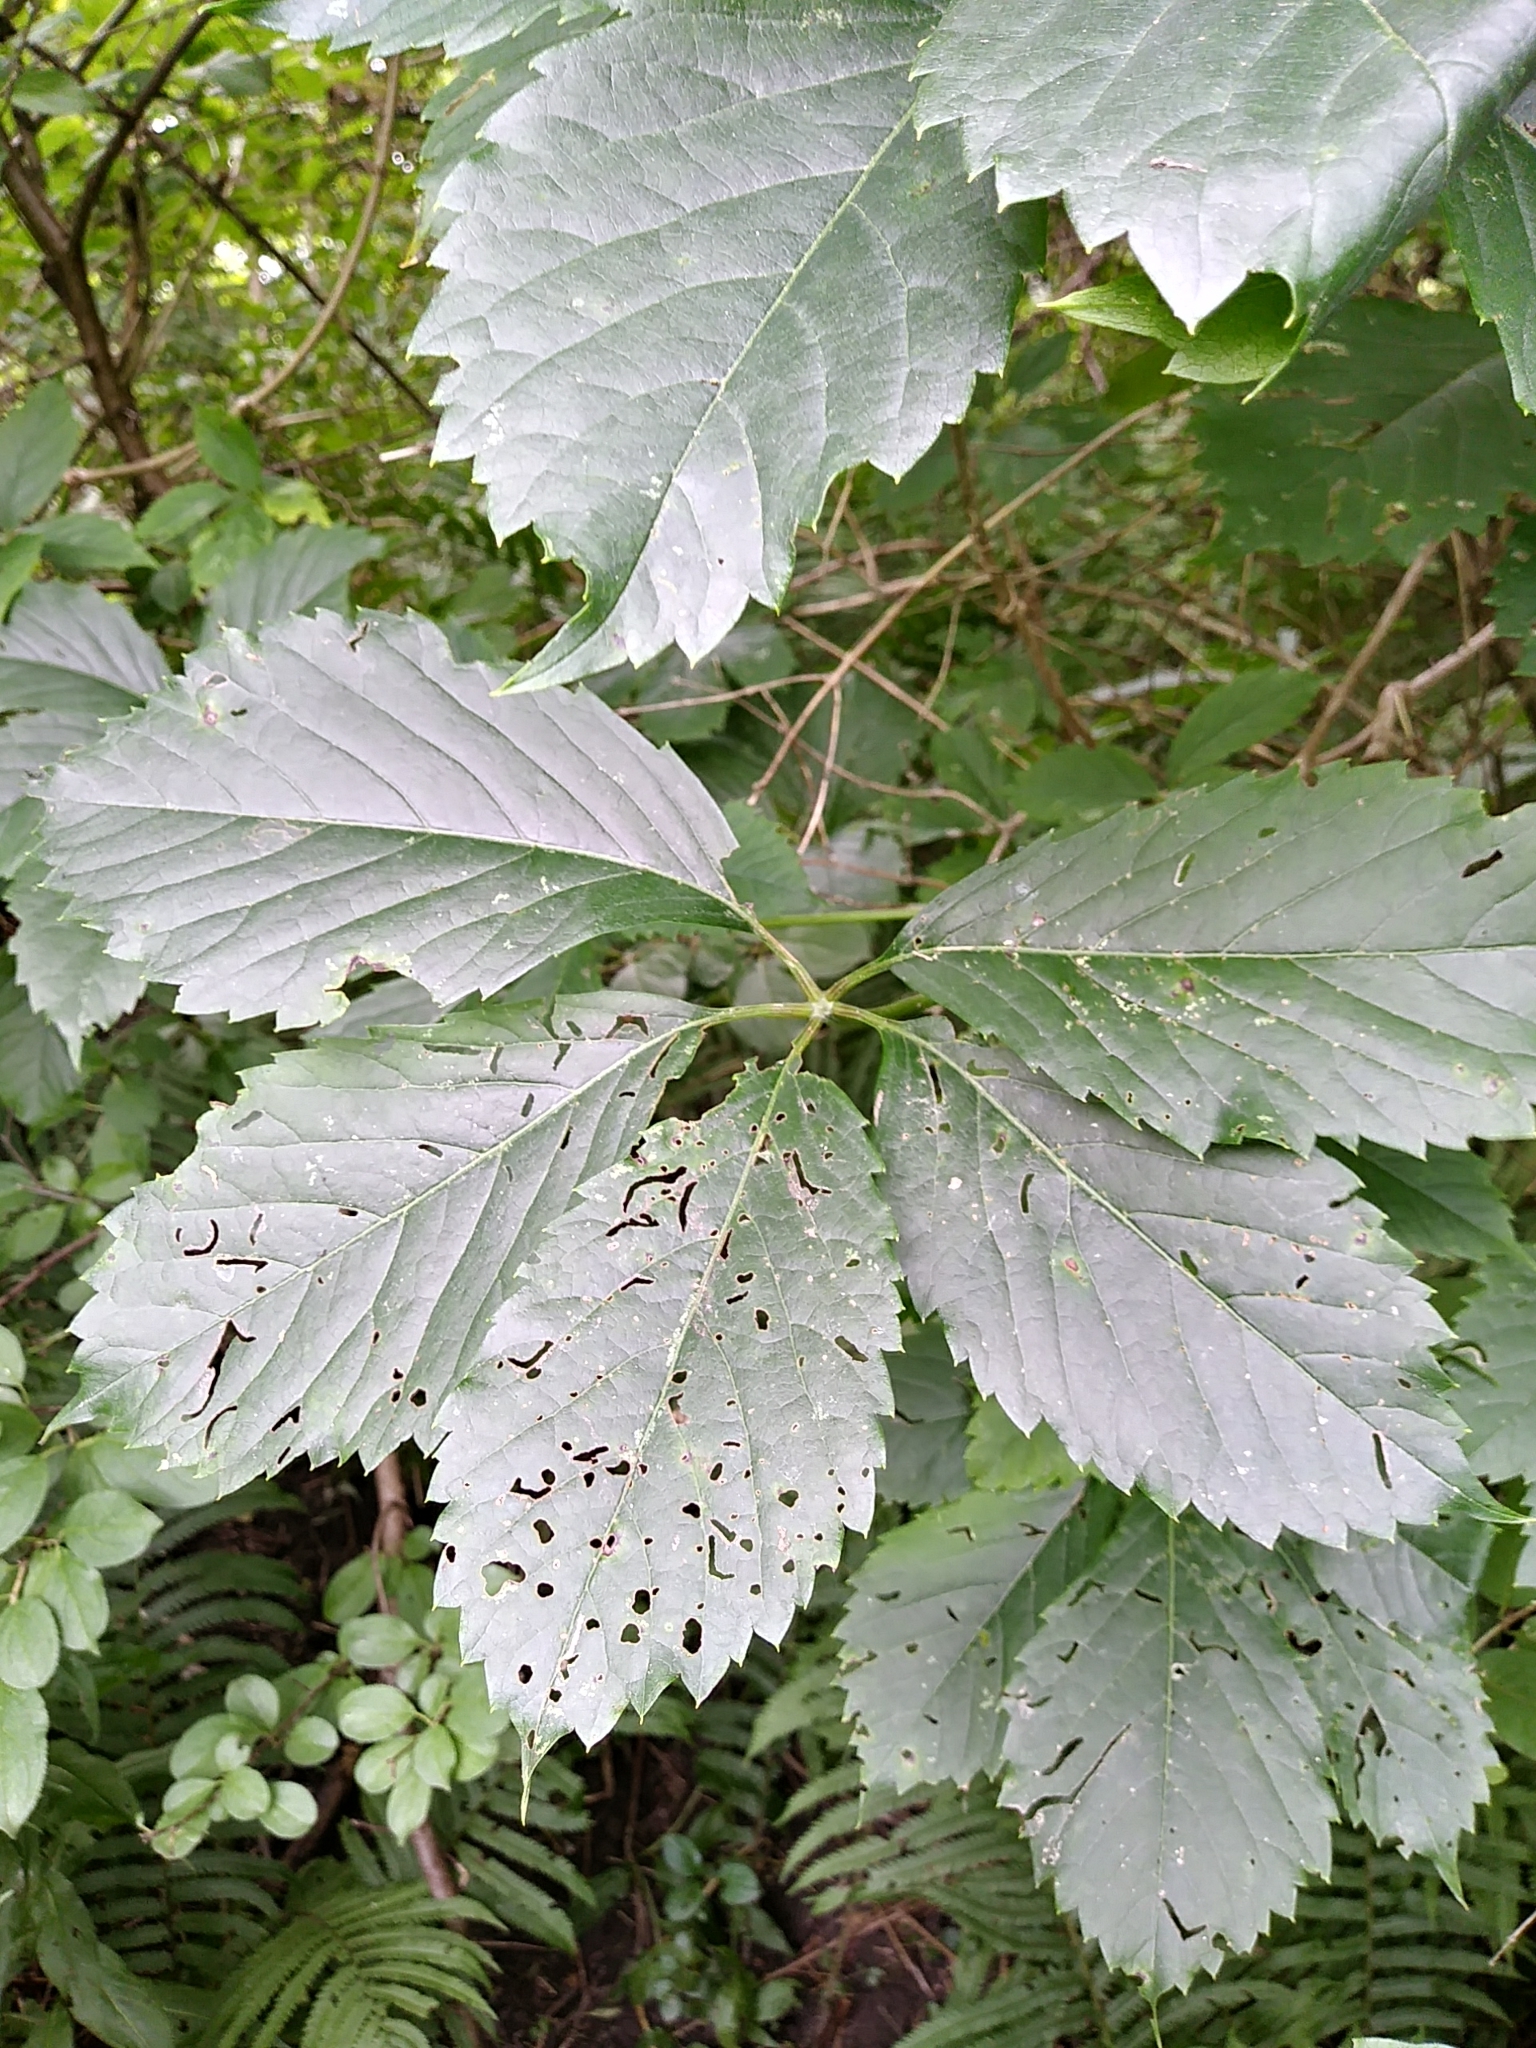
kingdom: Plantae
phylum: Tracheophyta
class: Magnoliopsida
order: Vitales
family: Vitaceae
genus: Parthenocissus
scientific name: Parthenocissus inserta
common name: False virginia-creeper
